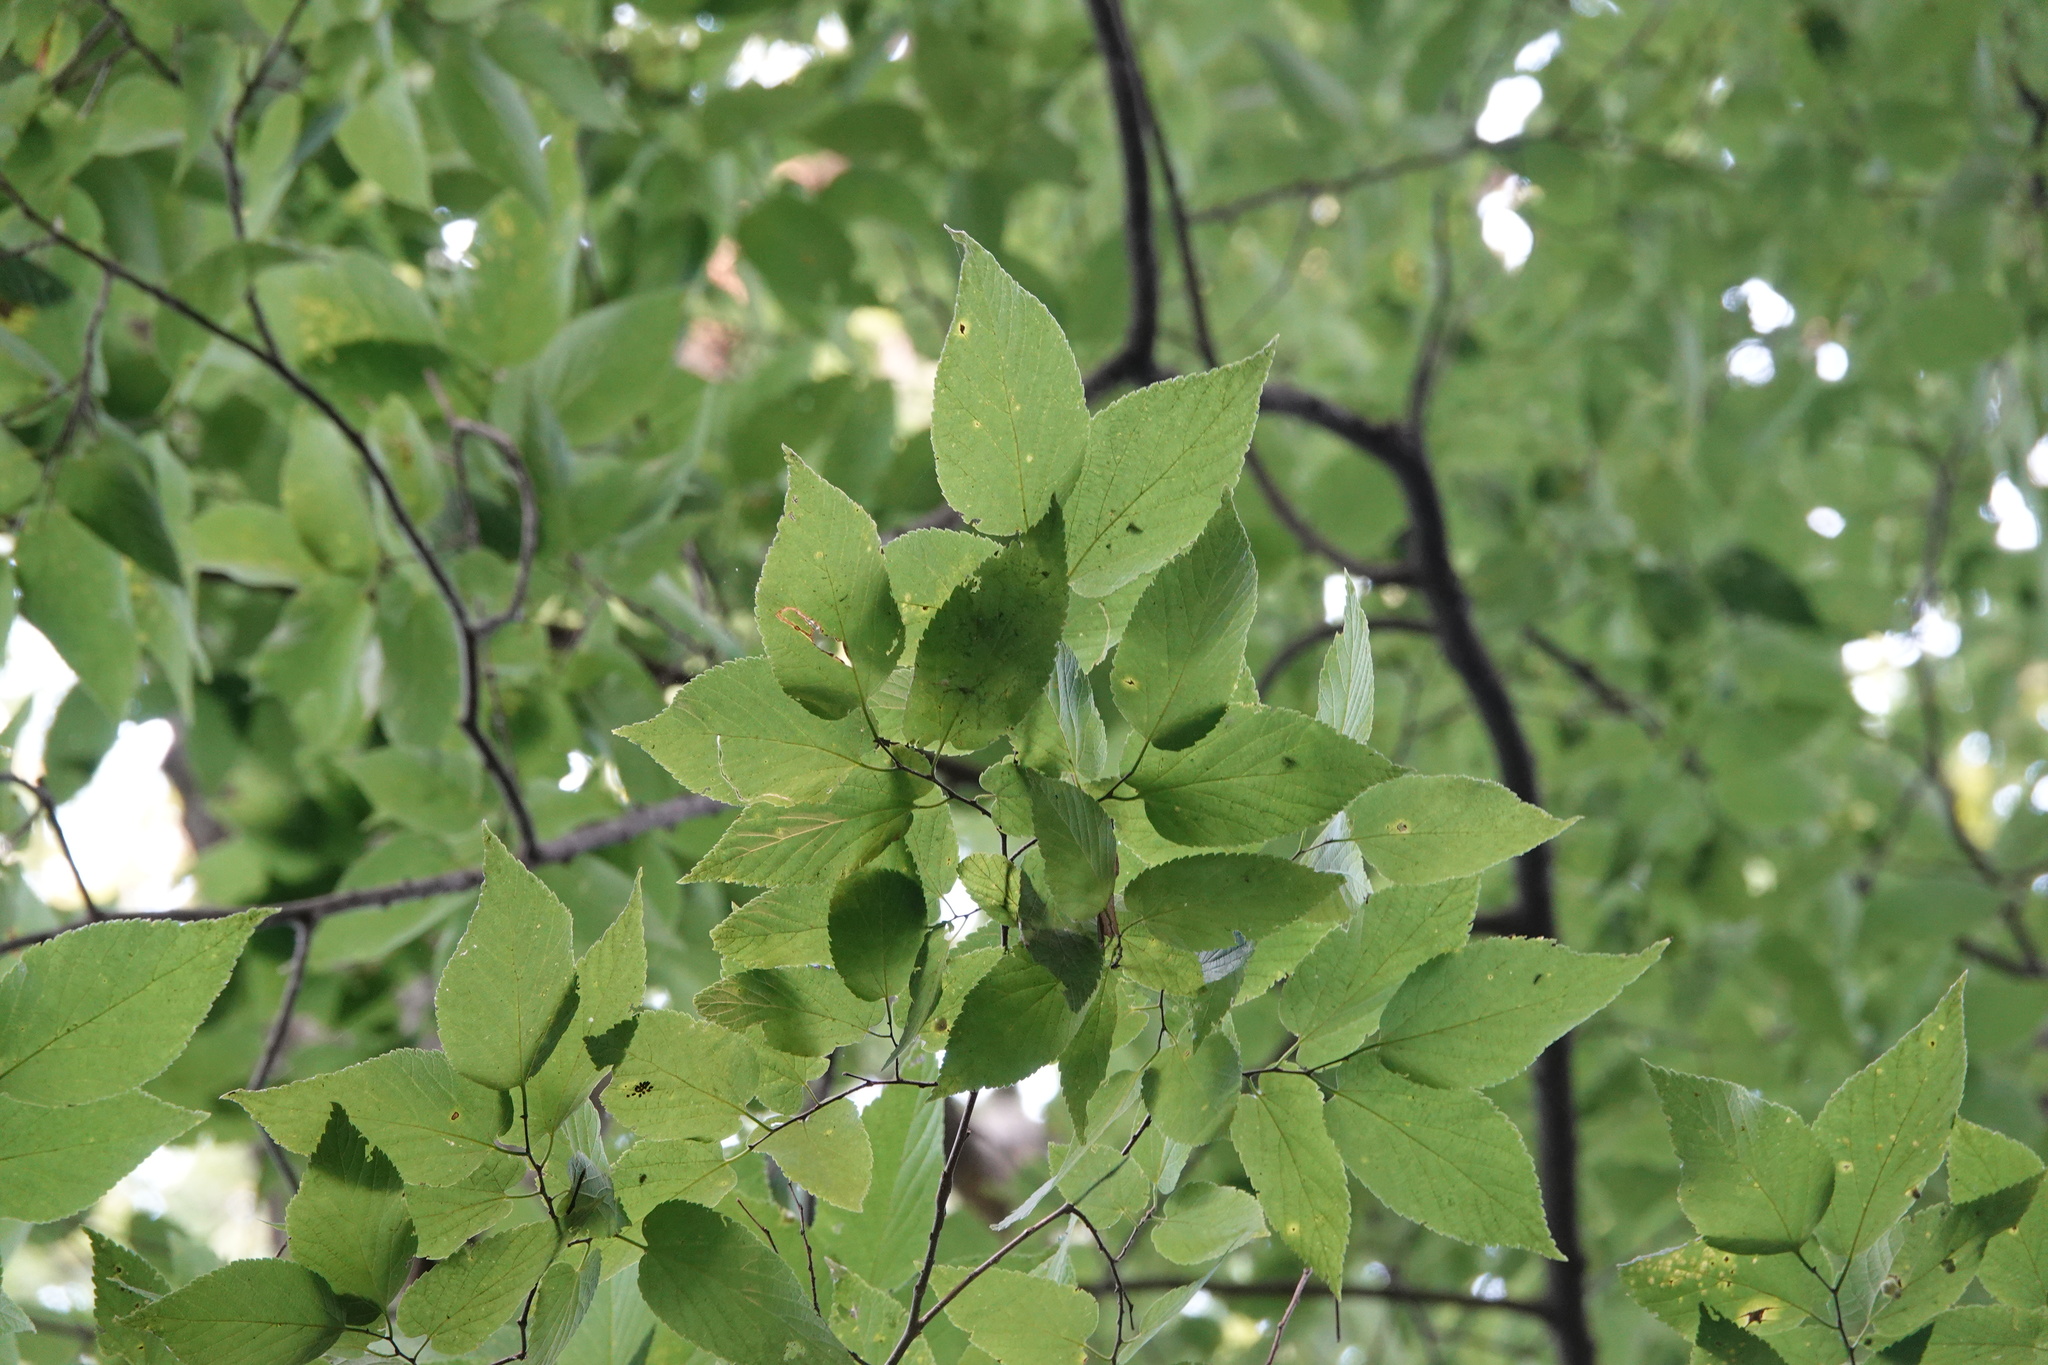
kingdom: Plantae
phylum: Tracheophyta
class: Magnoliopsida
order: Rosales
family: Cannabaceae
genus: Celtis
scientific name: Celtis occidentalis
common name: Common hackberry
